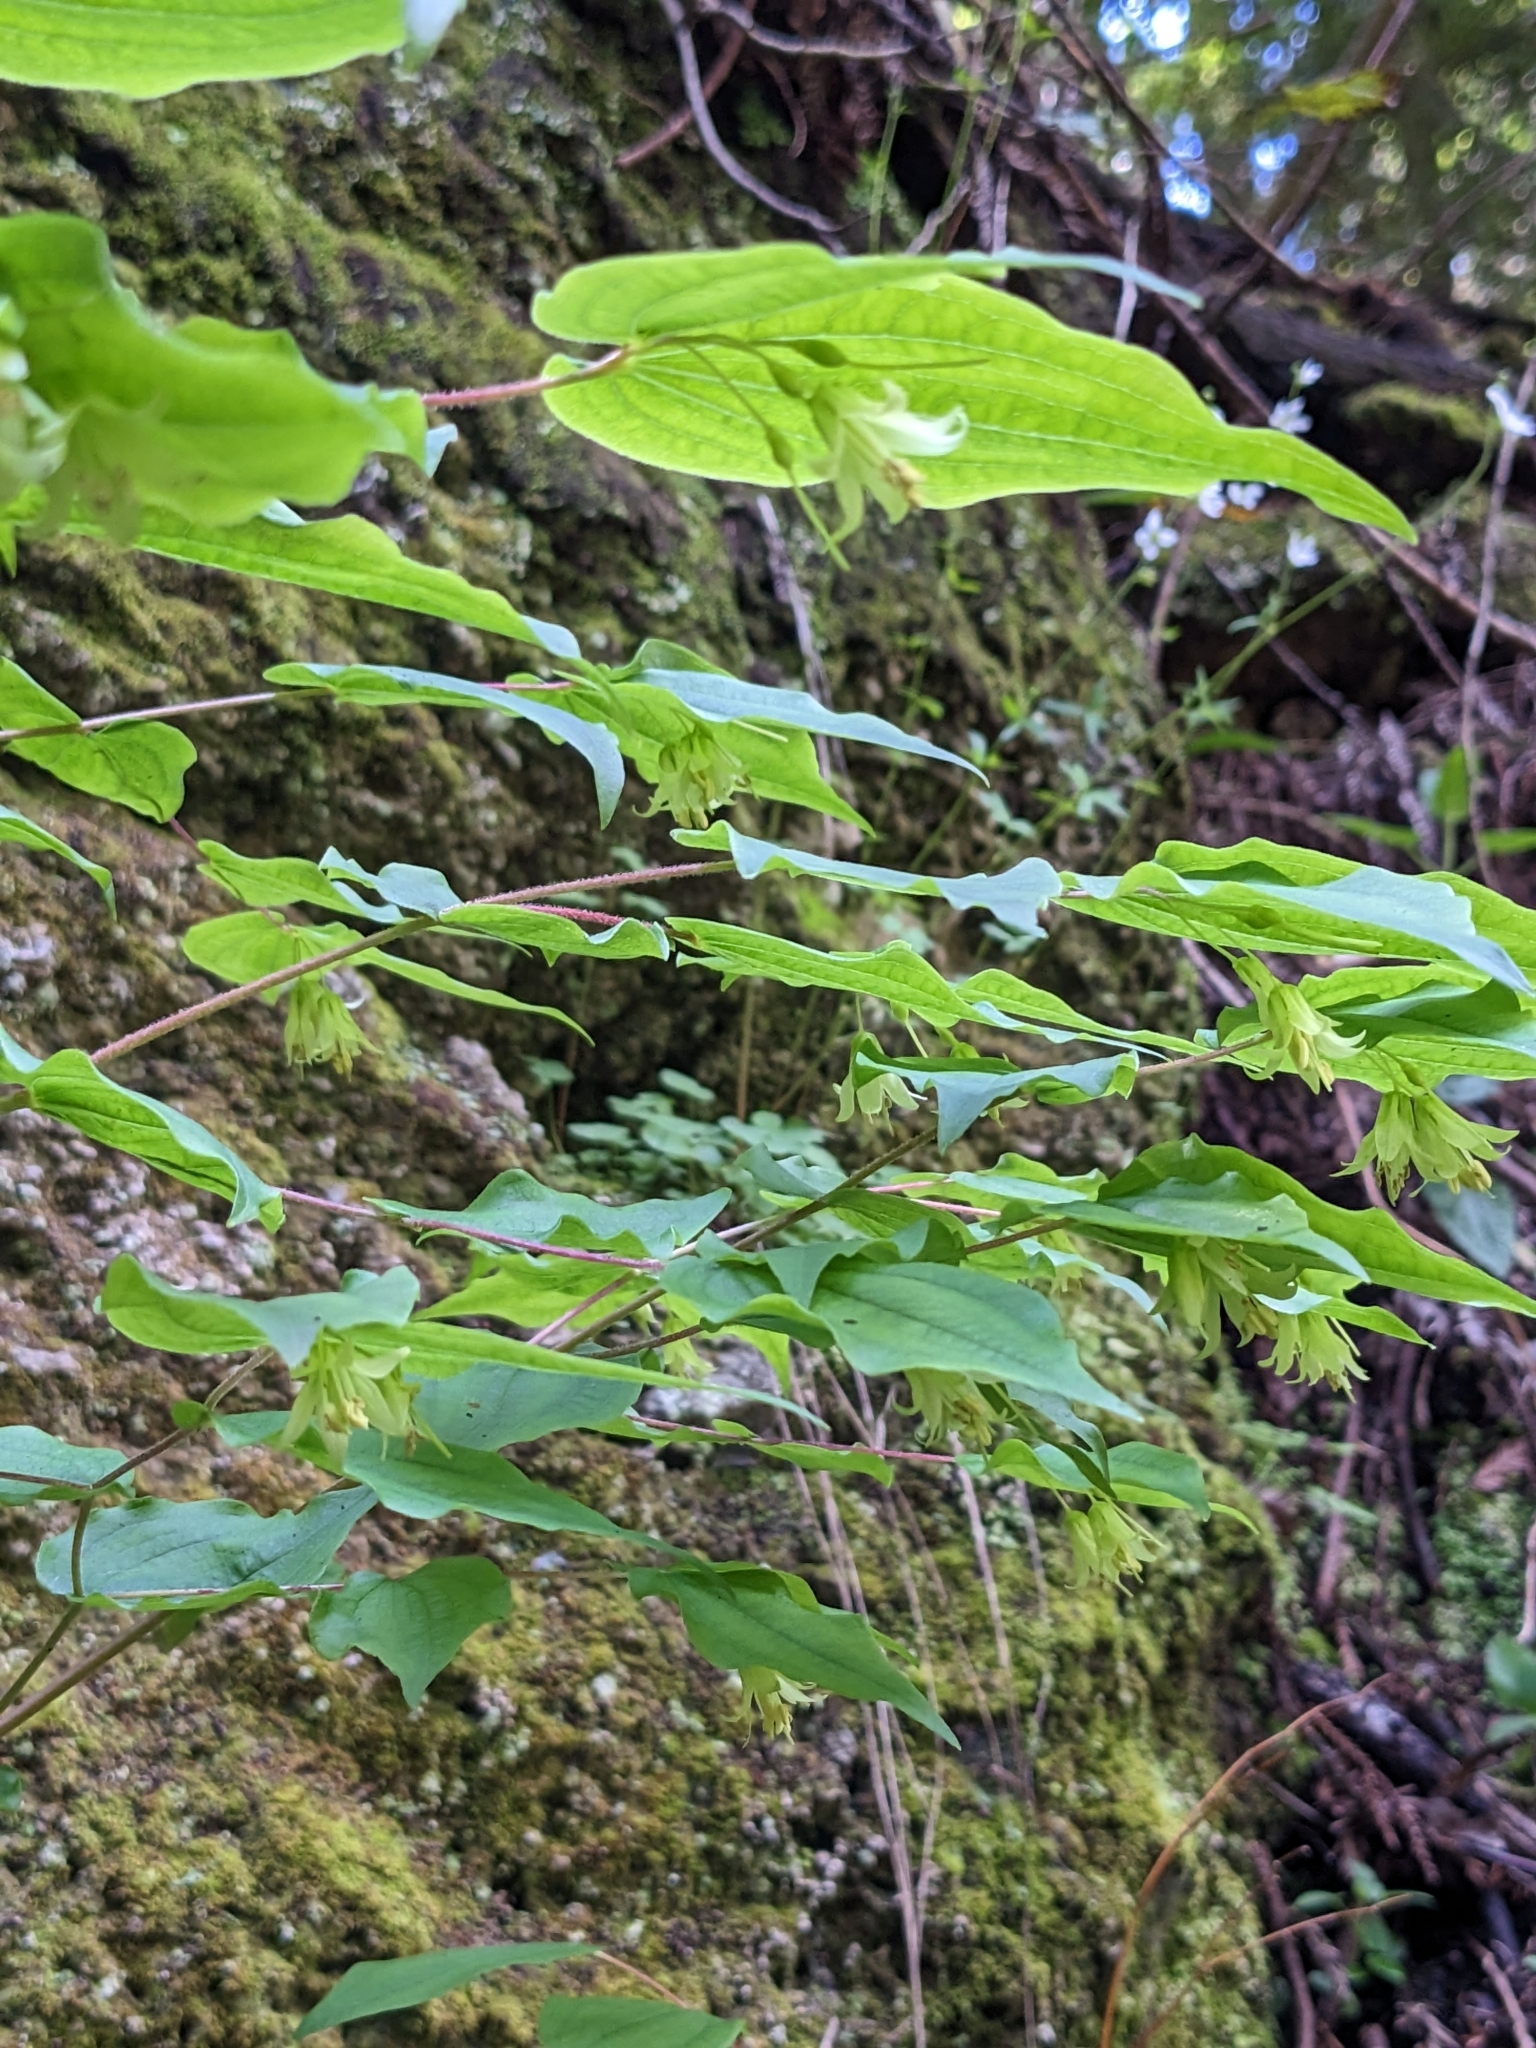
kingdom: Plantae
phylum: Tracheophyta
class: Liliopsida
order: Liliales
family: Liliaceae
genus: Prosartes
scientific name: Prosartes hookeri
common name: Fairy-bells
